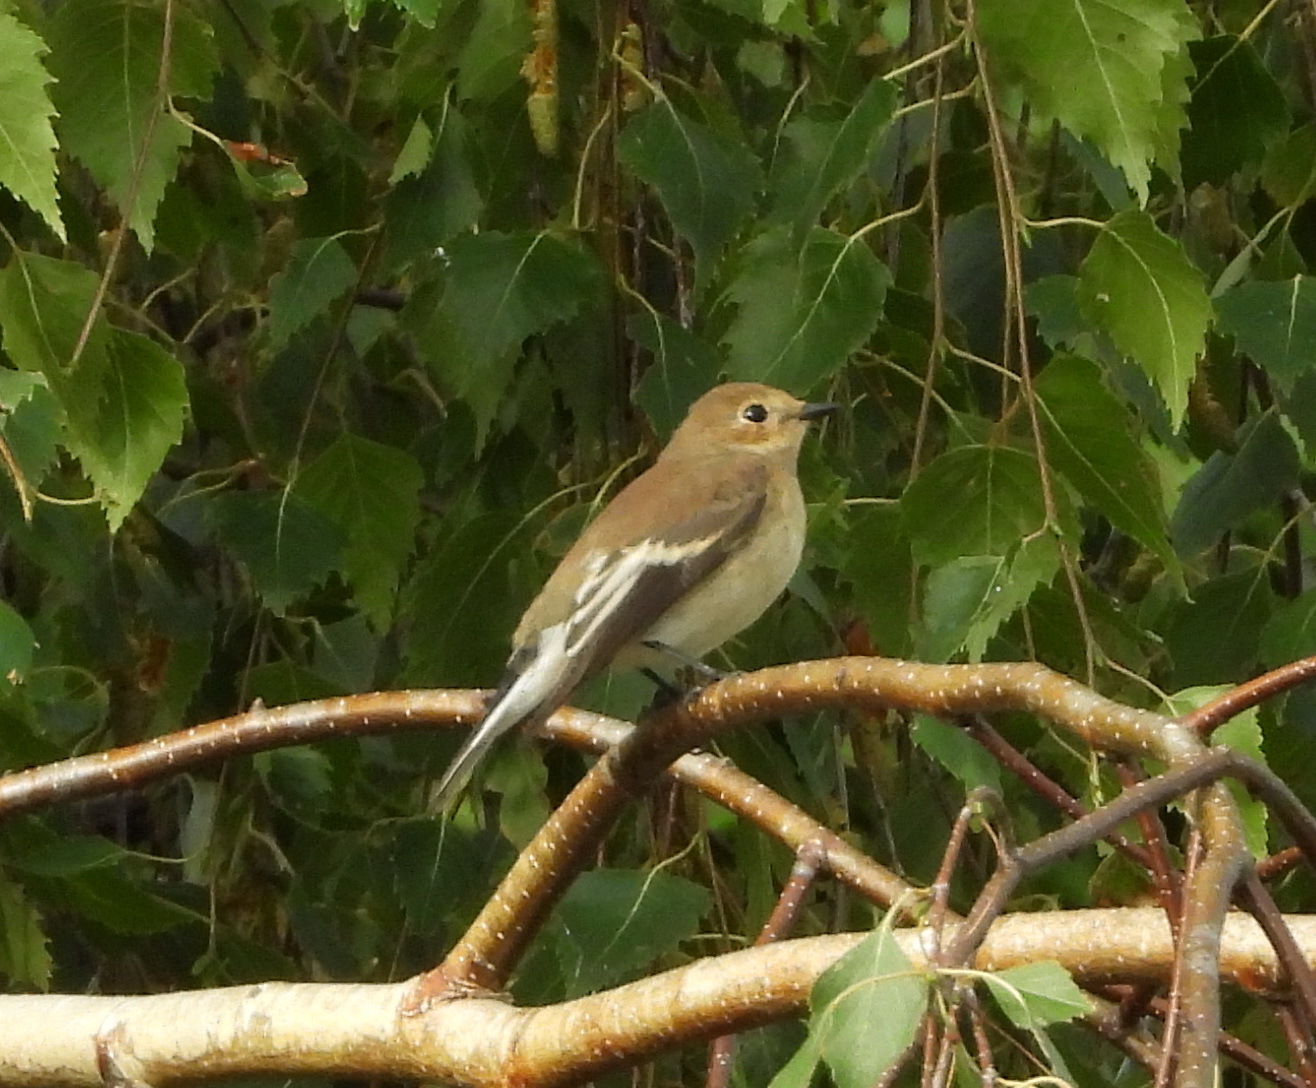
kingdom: Animalia
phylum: Chordata
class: Aves
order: Passeriformes
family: Muscicapidae
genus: Ficedula
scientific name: Ficedula hypoleuca
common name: European pied flycatcher
